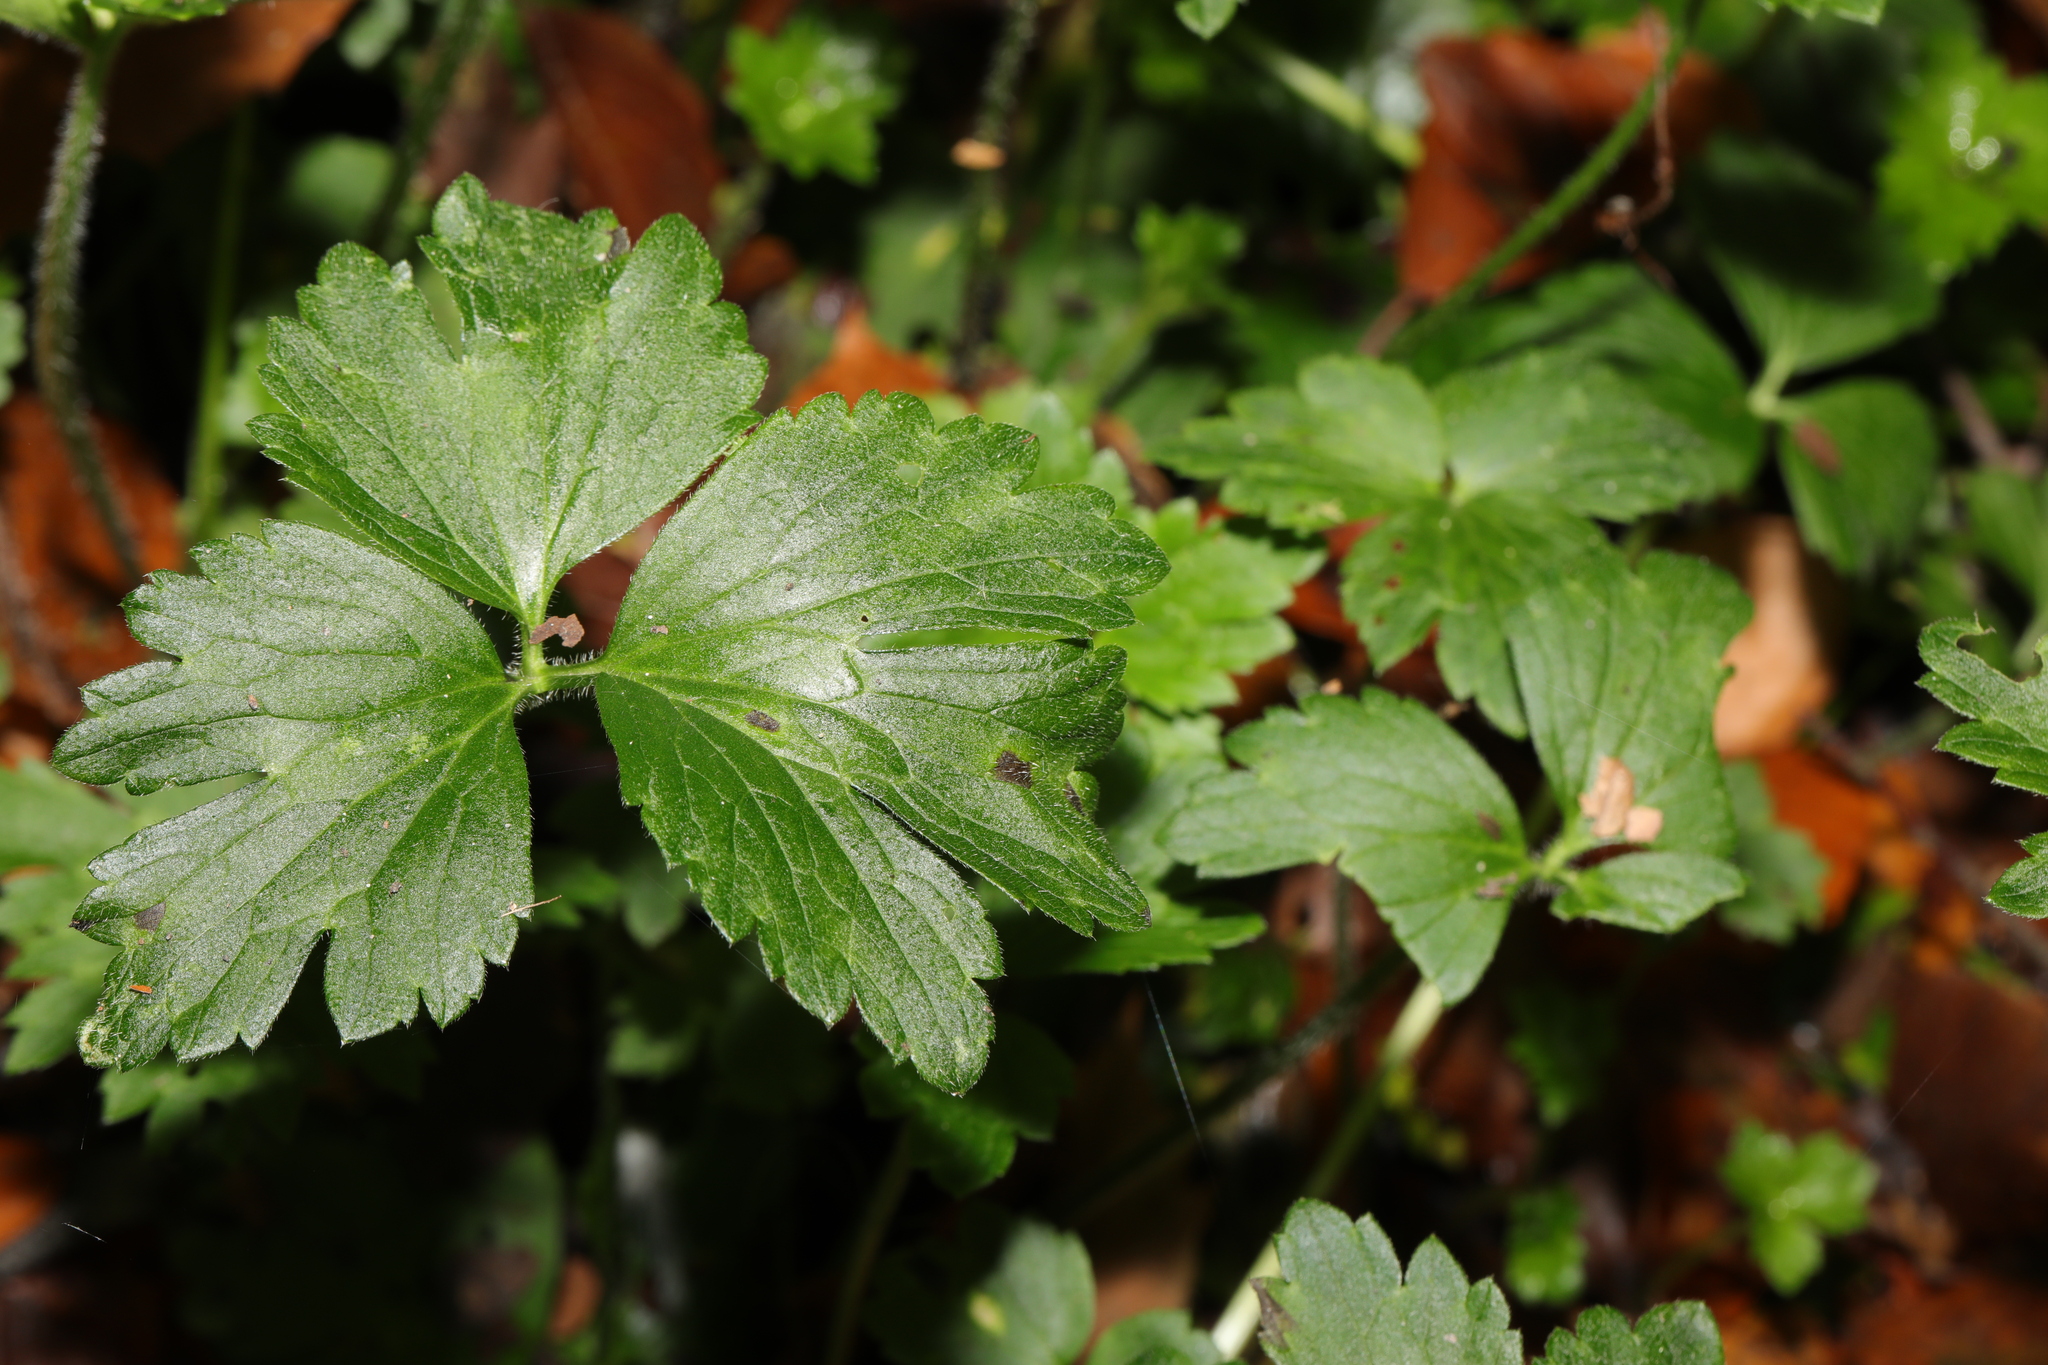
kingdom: Plantae
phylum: Tracheophyta
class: Magnoliopsida
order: Ranunculales
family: Ranunculaceae
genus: Ranunculus
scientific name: Ranunculus repens
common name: Creeping buttercup
